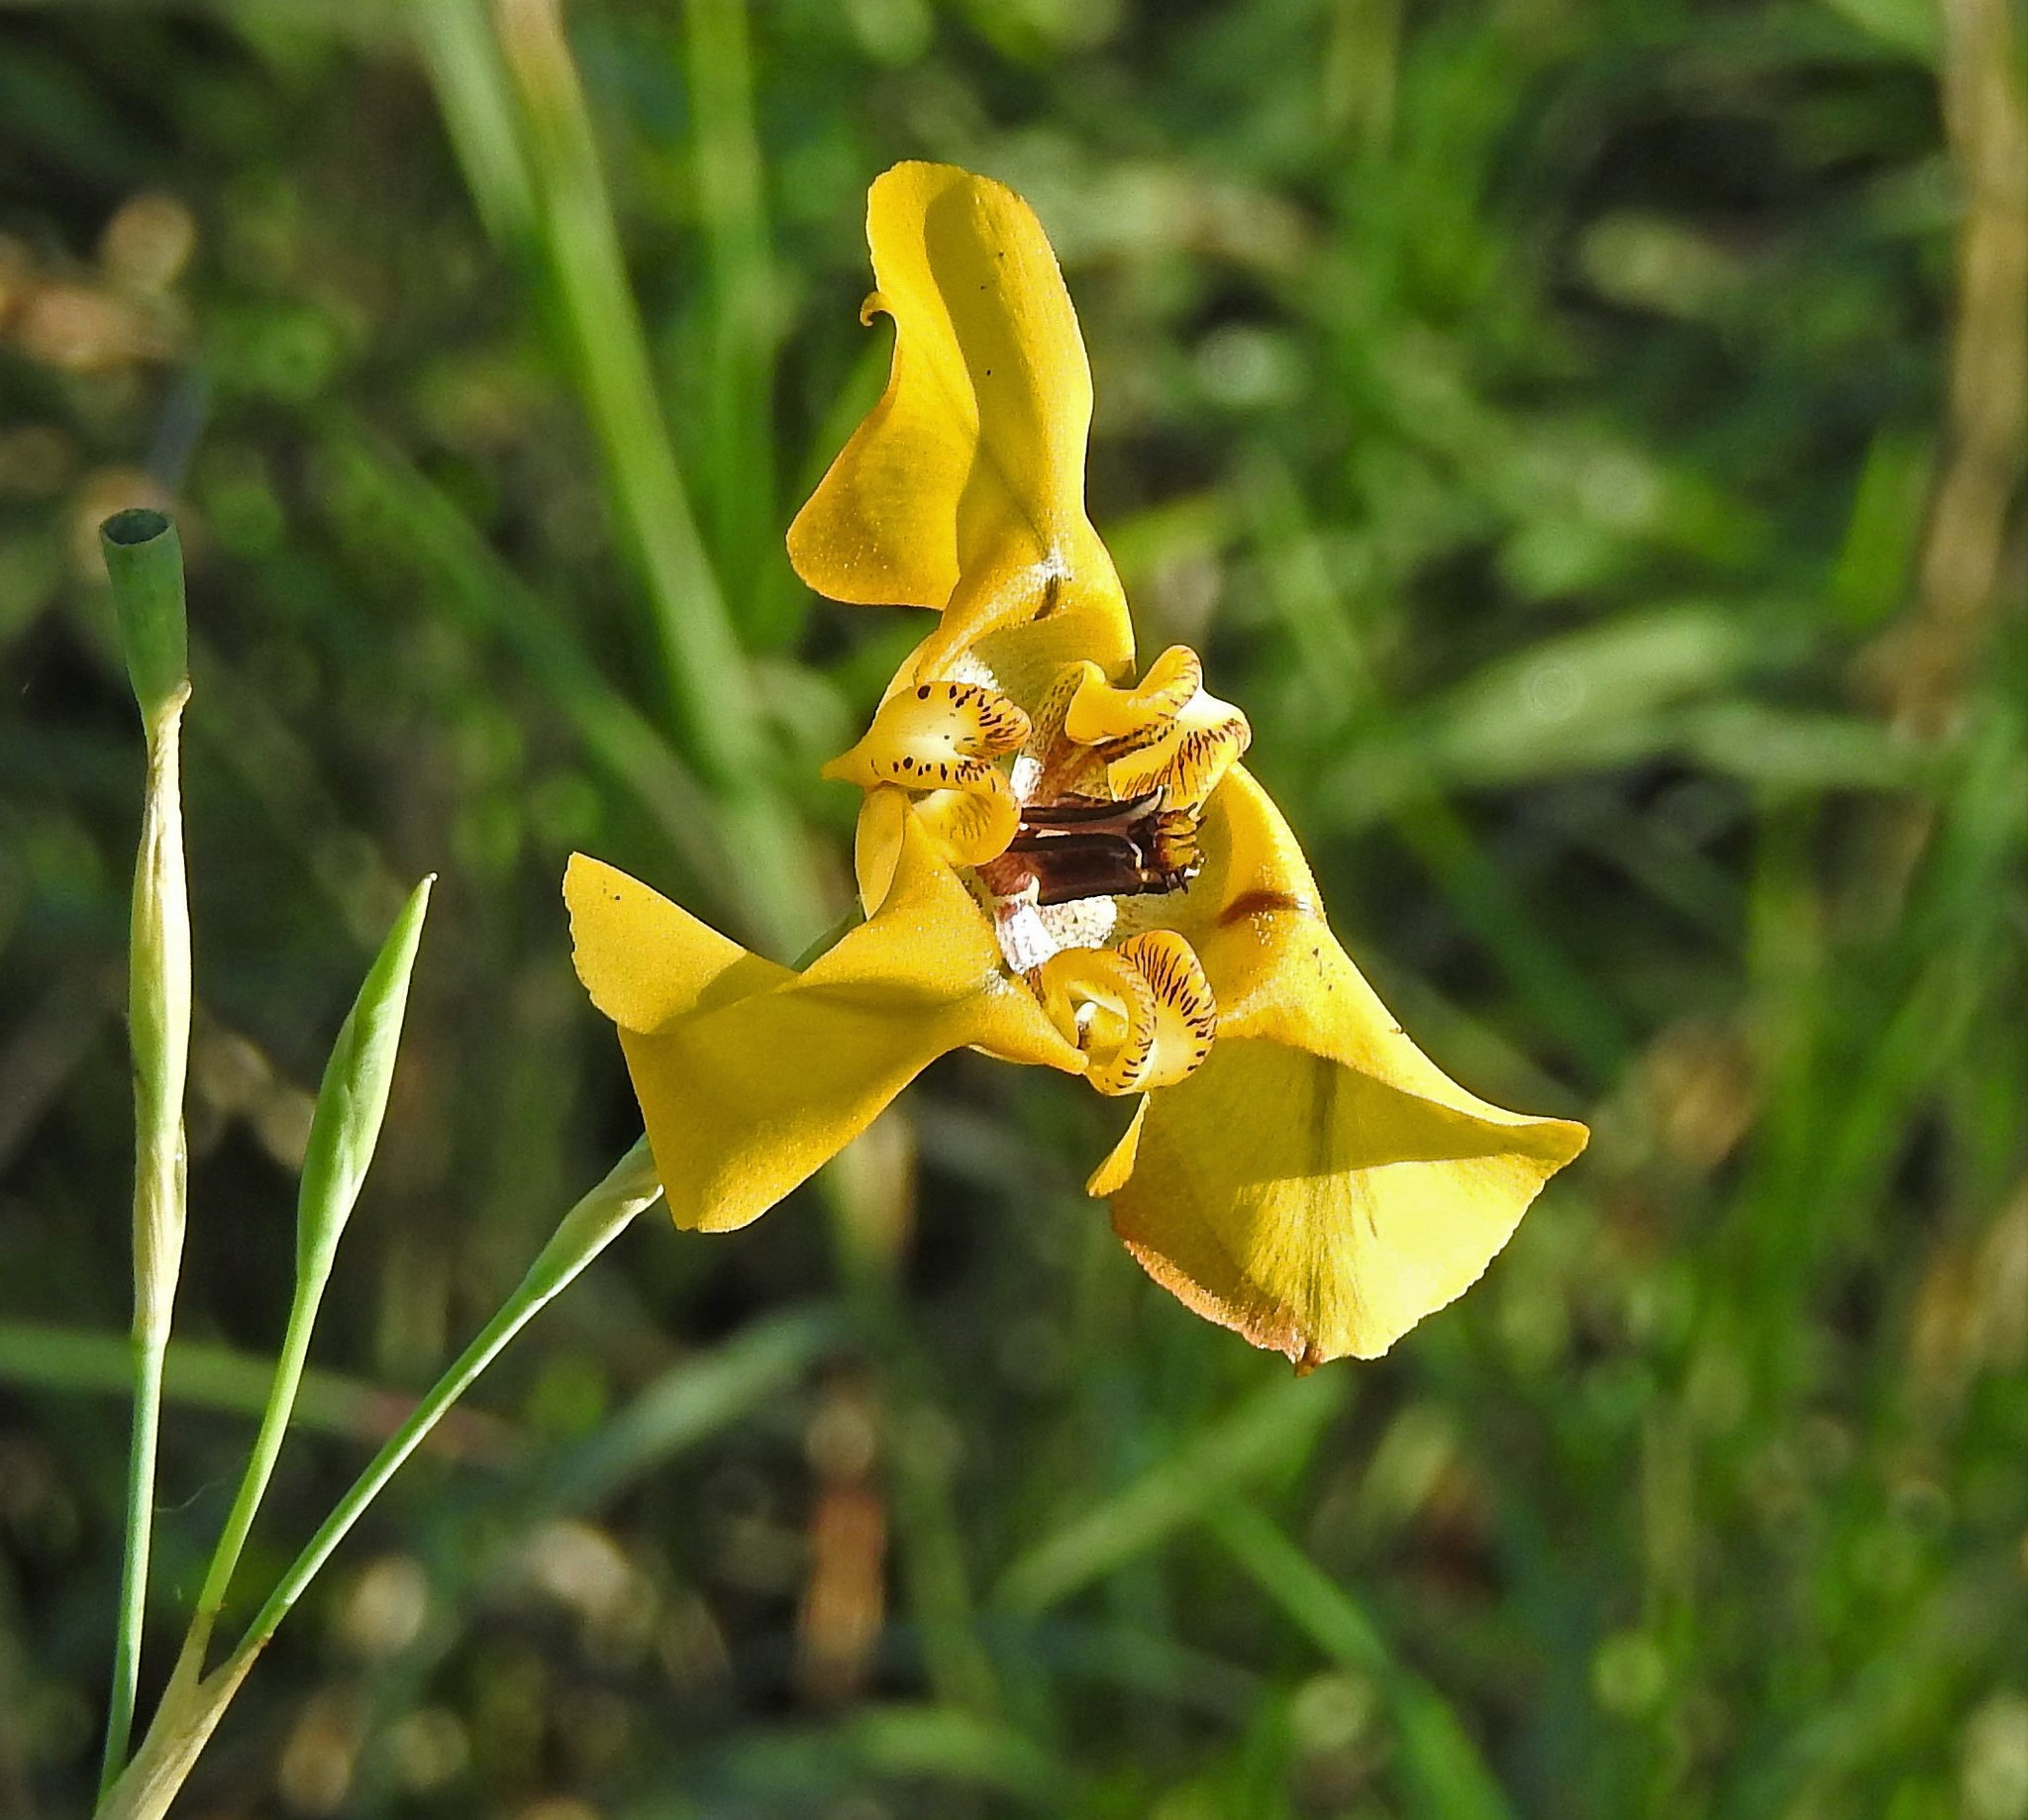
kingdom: Plantae
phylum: Tracheophyta
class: Liliopsida
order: Asparagales
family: Iridaceae
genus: Cypella
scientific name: Cypella herbertii
